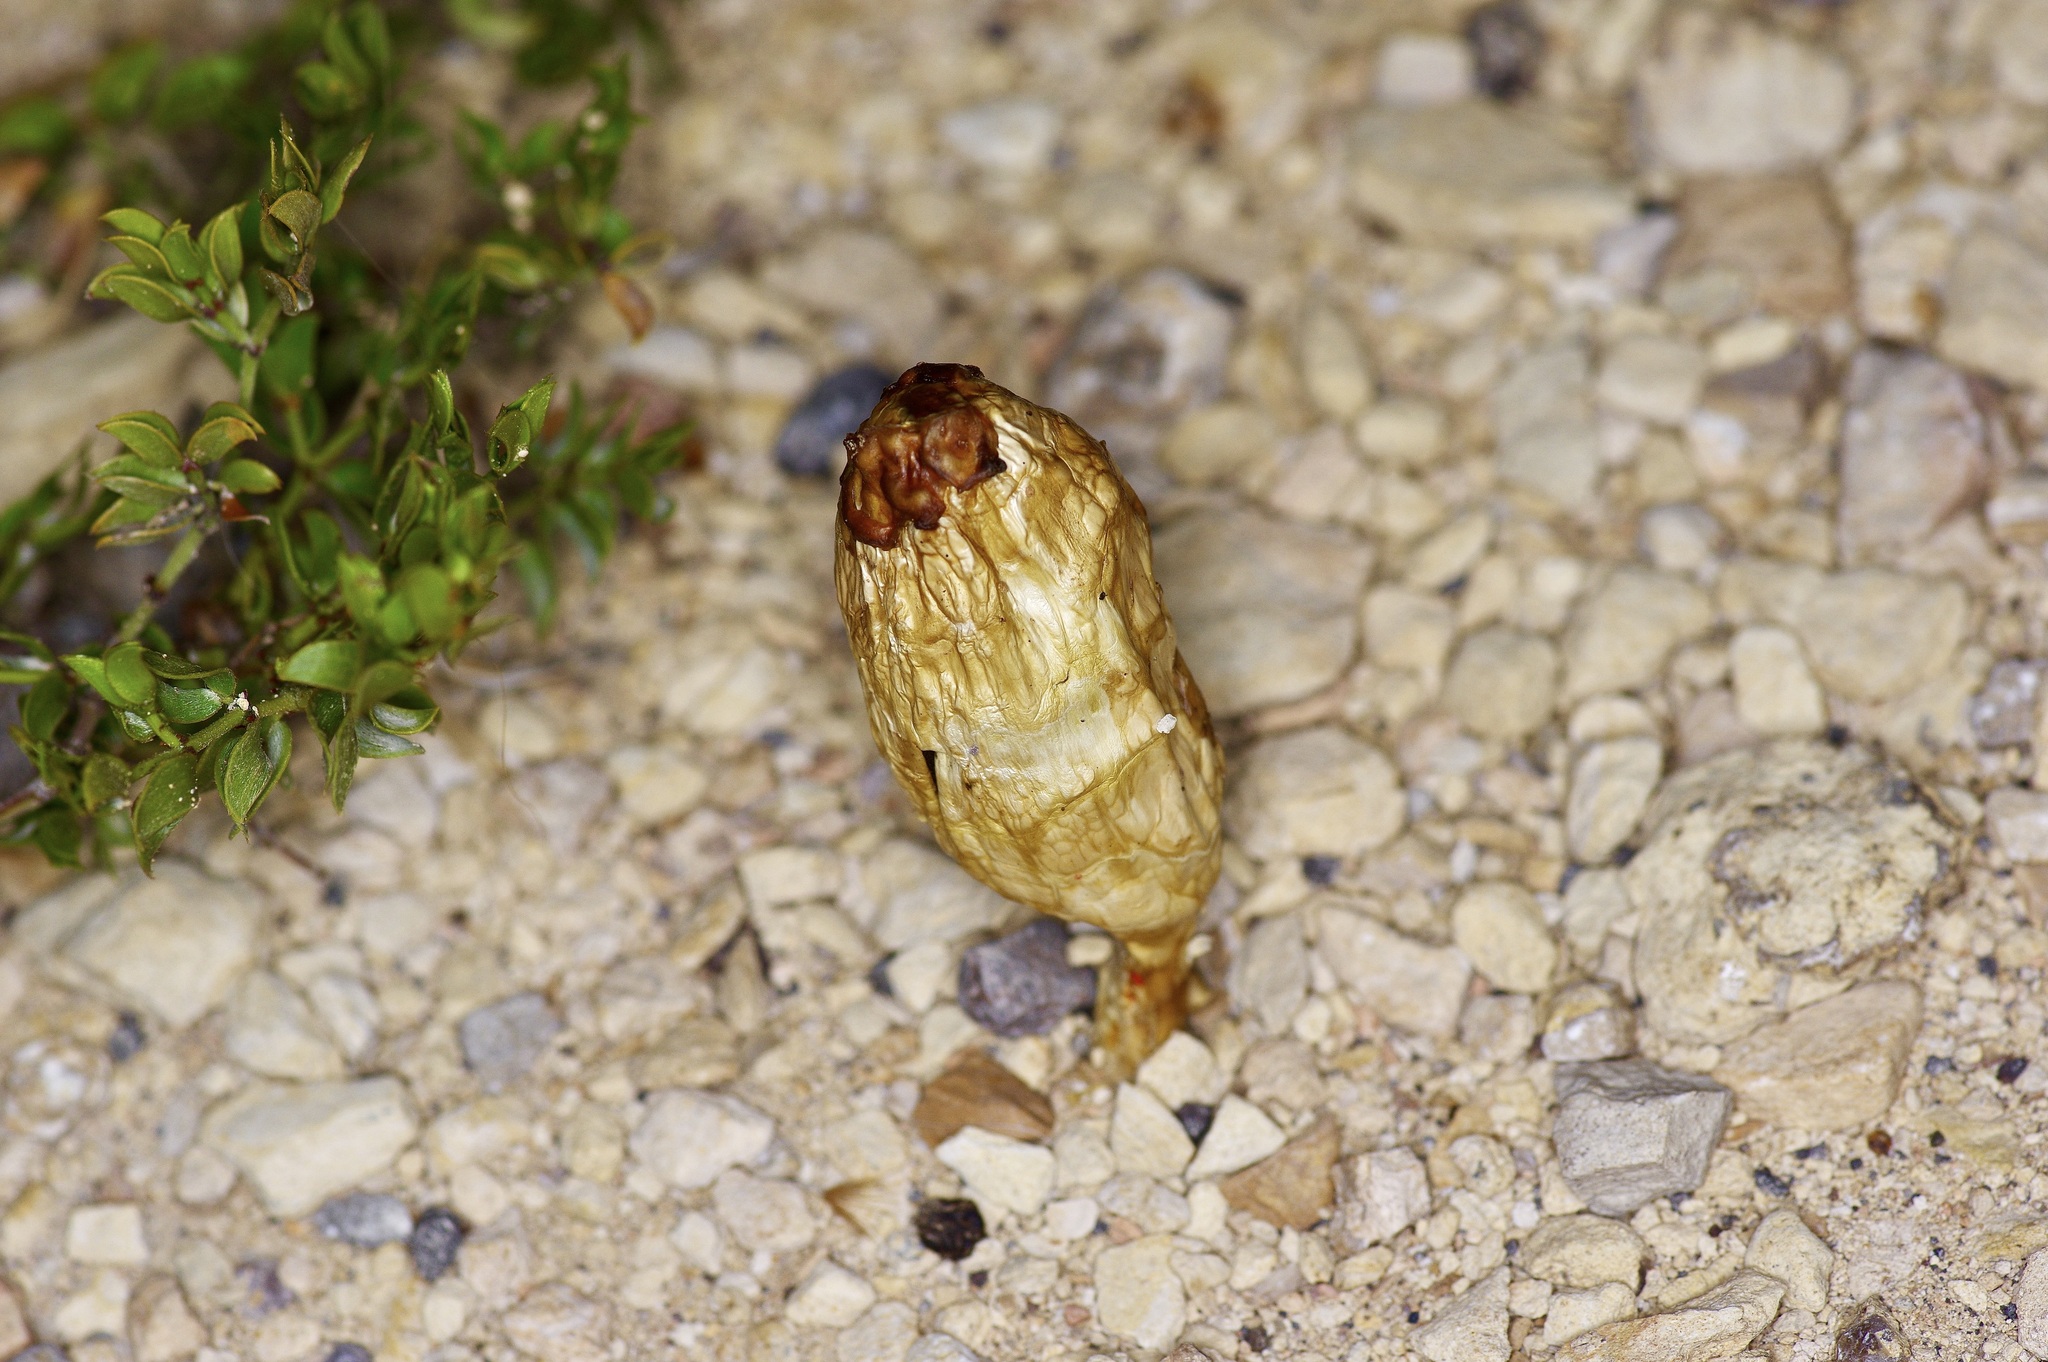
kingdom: Fungi
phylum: Basidiomycota
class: Agaricomycetes
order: Agaricales
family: Agaricaceae
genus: Podaxis
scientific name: Podaxis pistillaris
